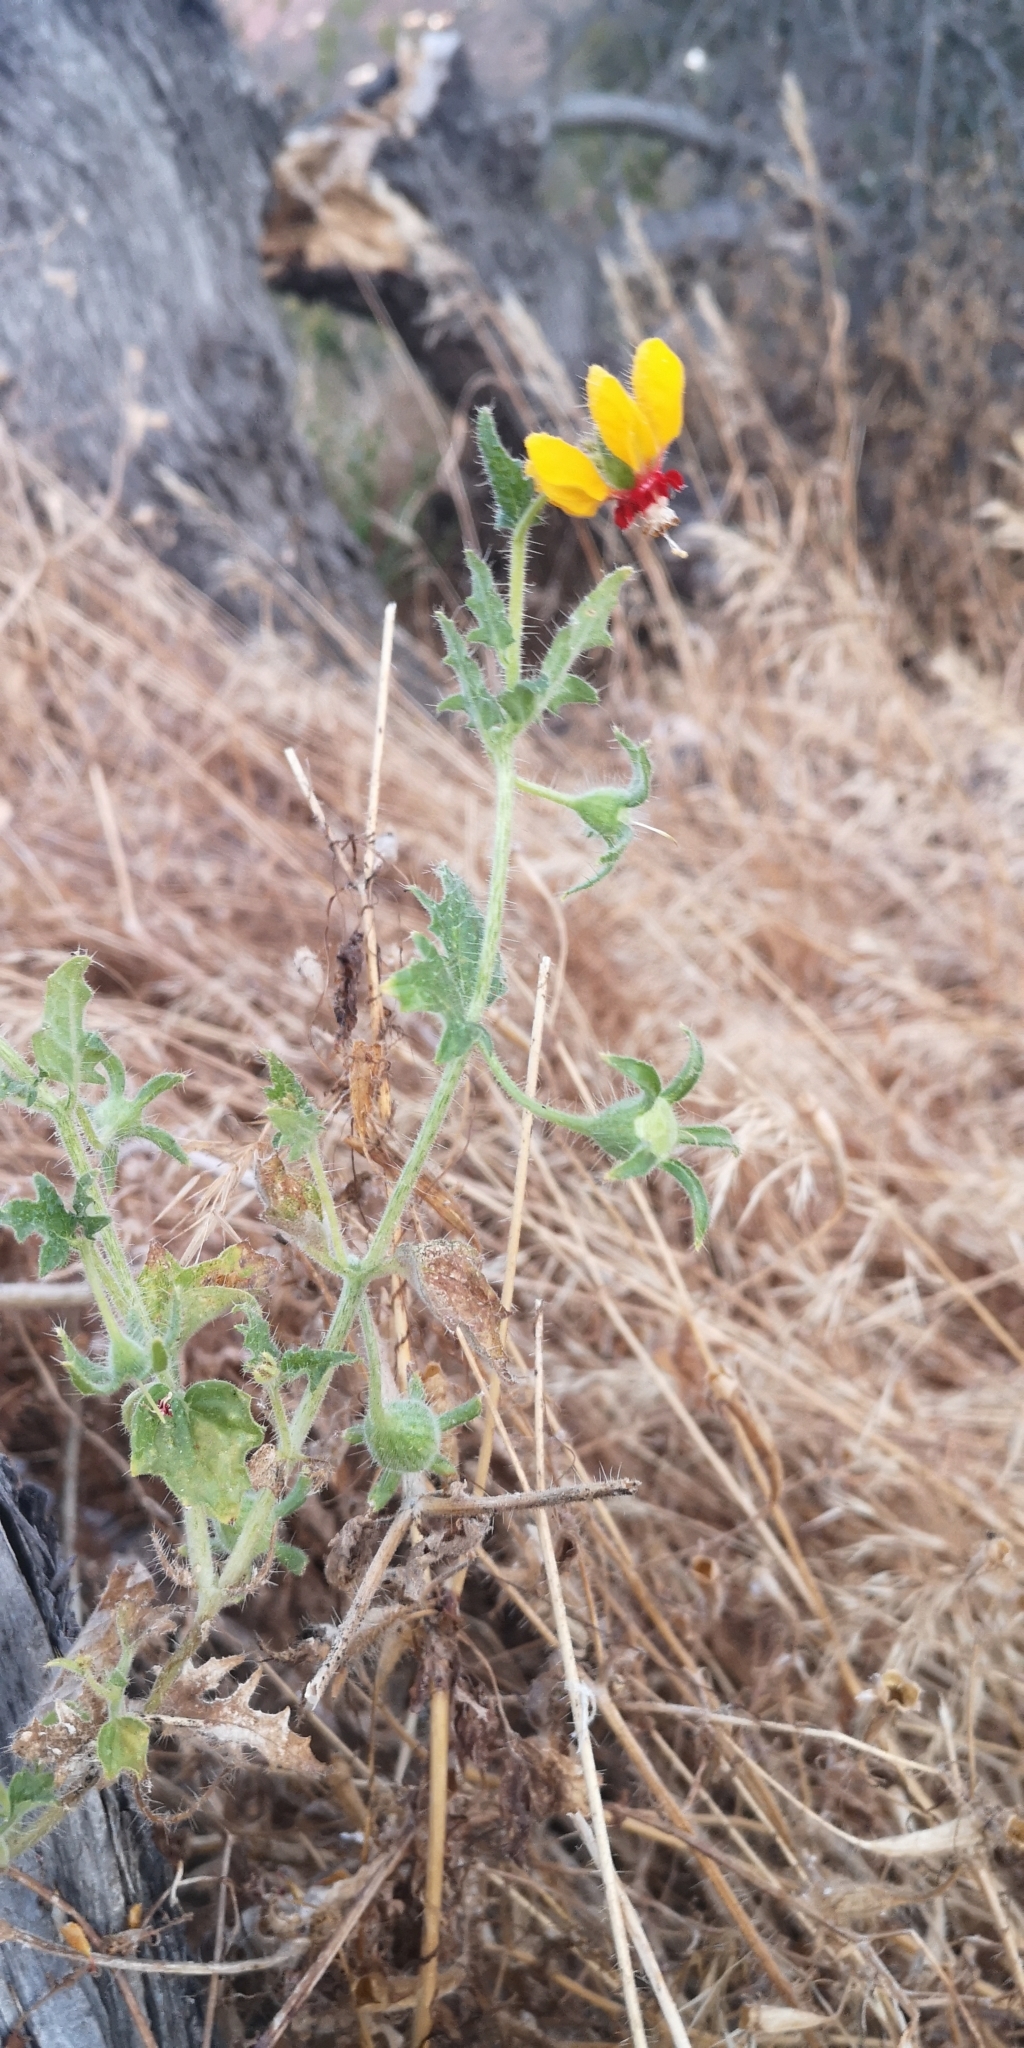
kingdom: Plantae
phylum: Tracheophyta
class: Magnoliopsida
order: Cornales
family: Loasaceae
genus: Loasa
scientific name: Loasa tricolor
